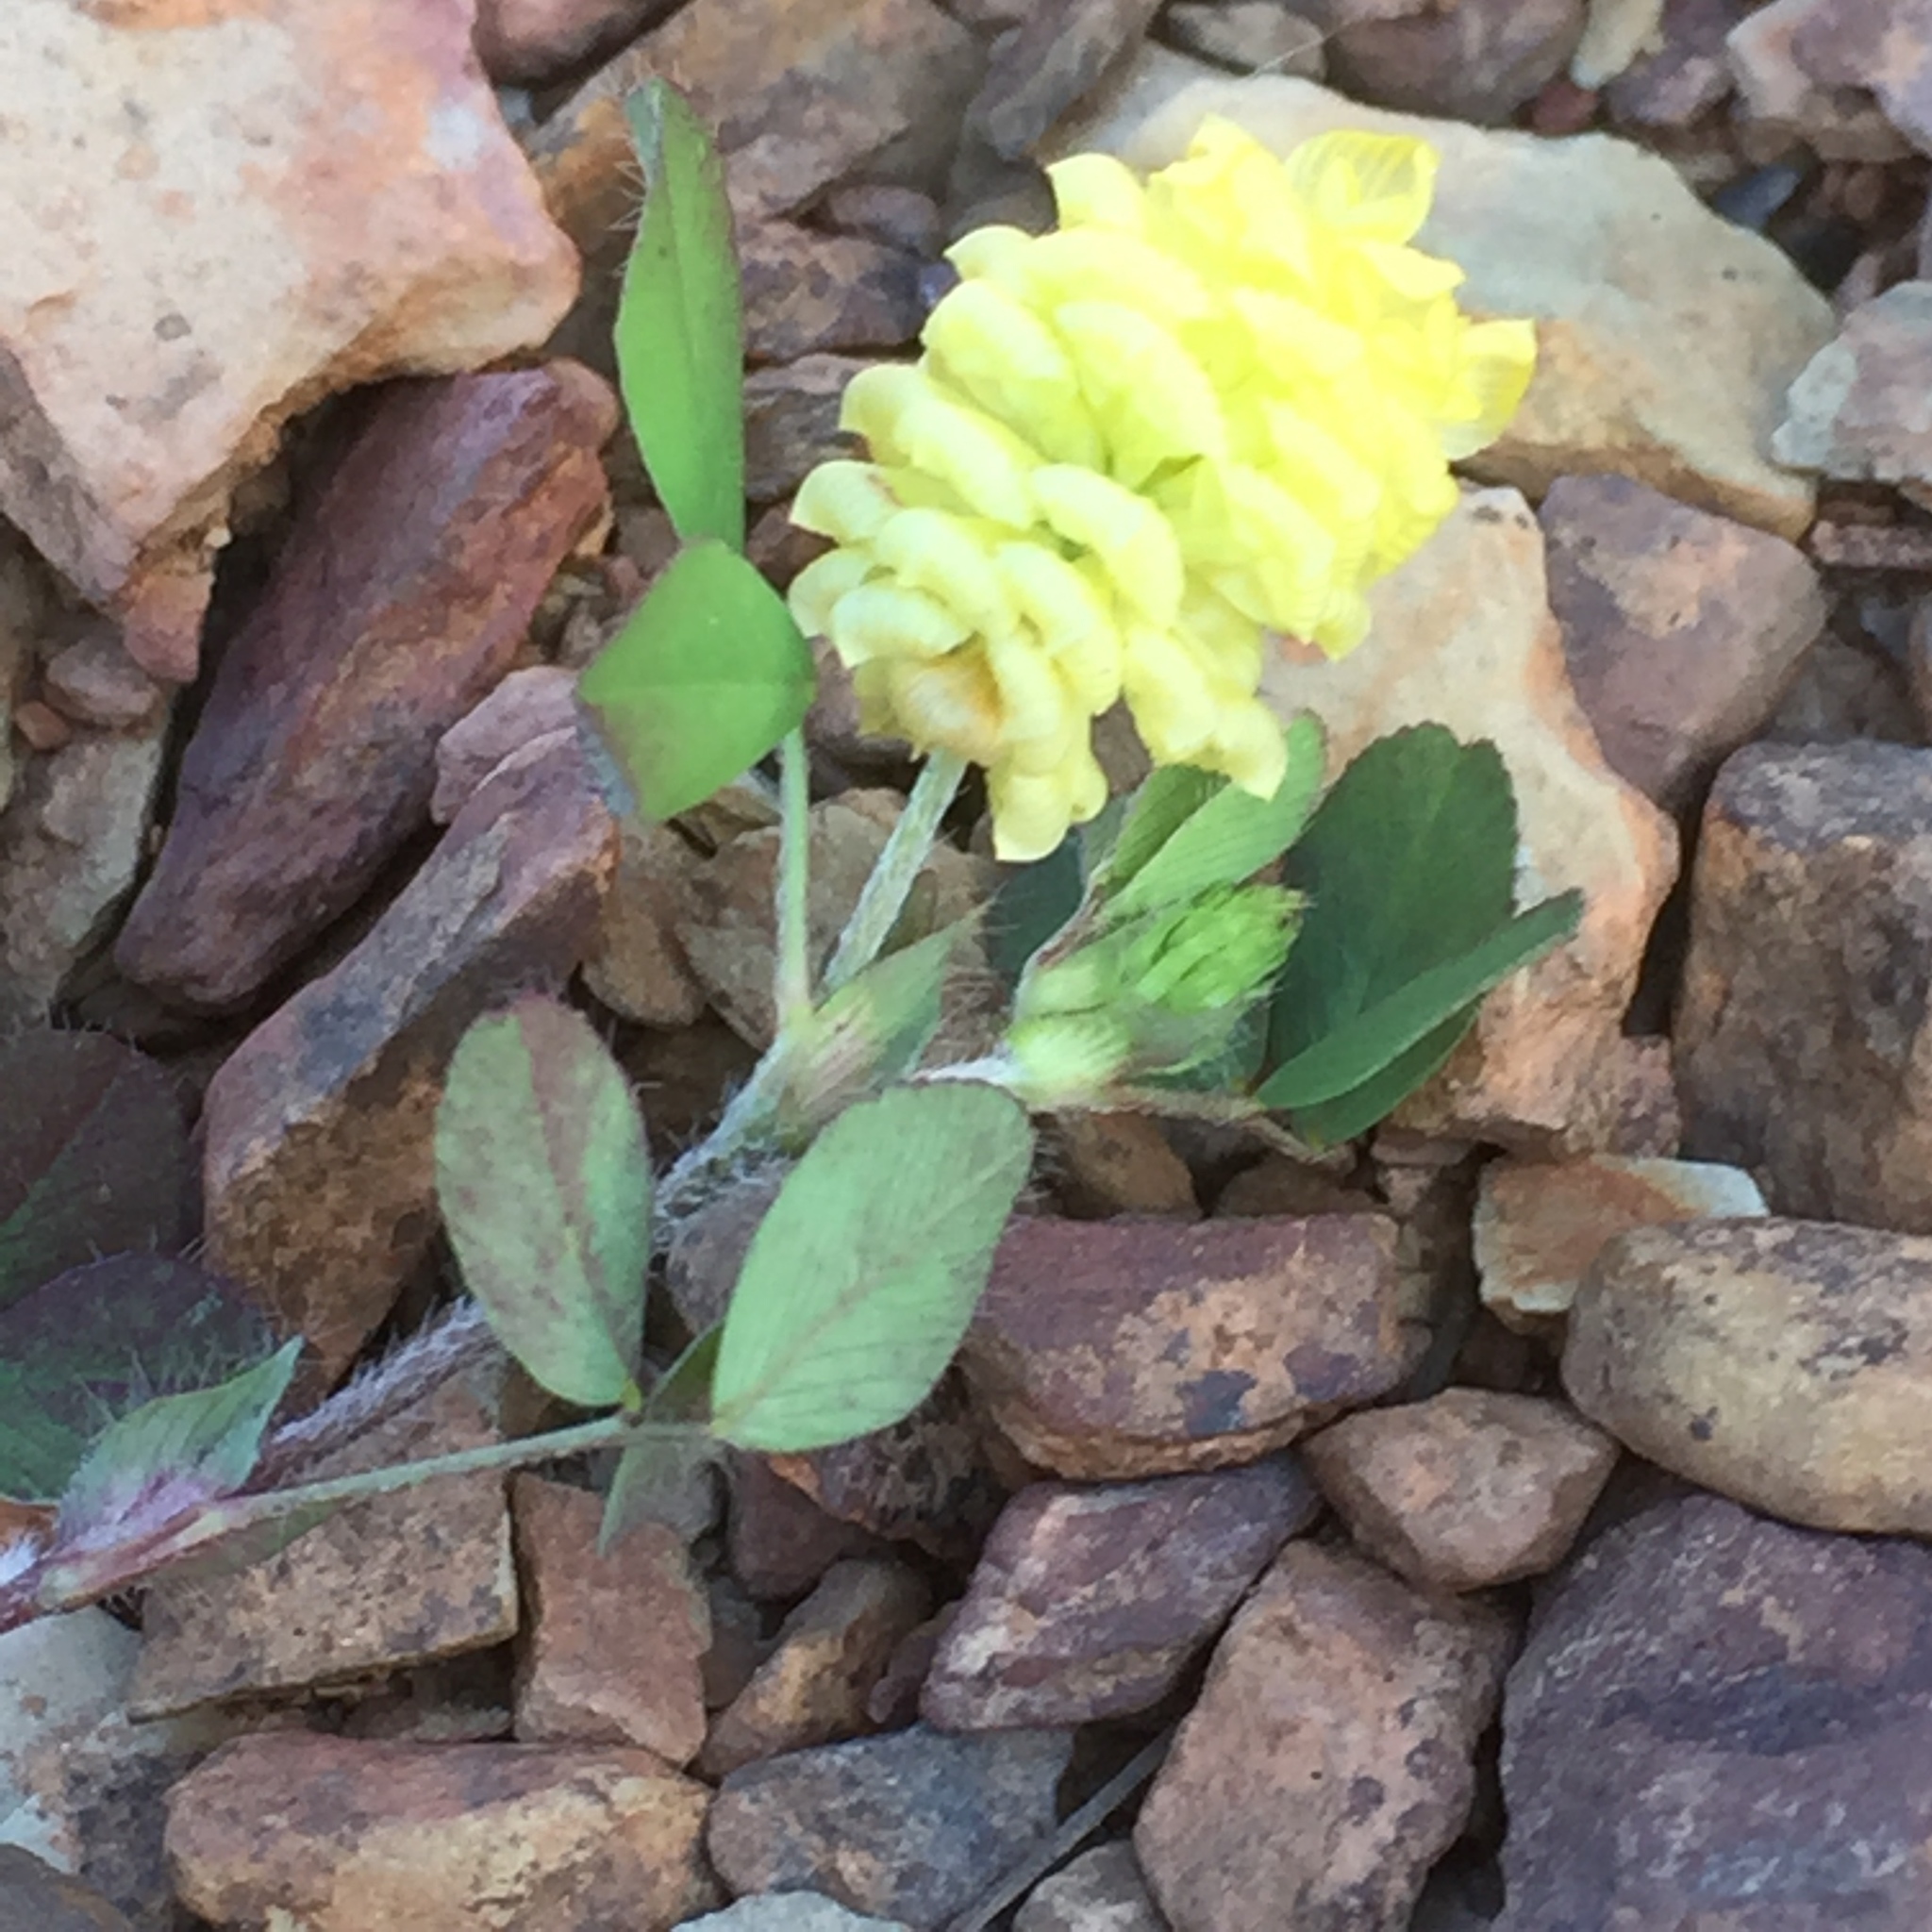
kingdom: Plantae
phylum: Tracheophyta
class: Magnoliopsida
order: Fabales
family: Fabaceae
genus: Trifolium
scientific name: Trifolium campestre
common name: Field clover
